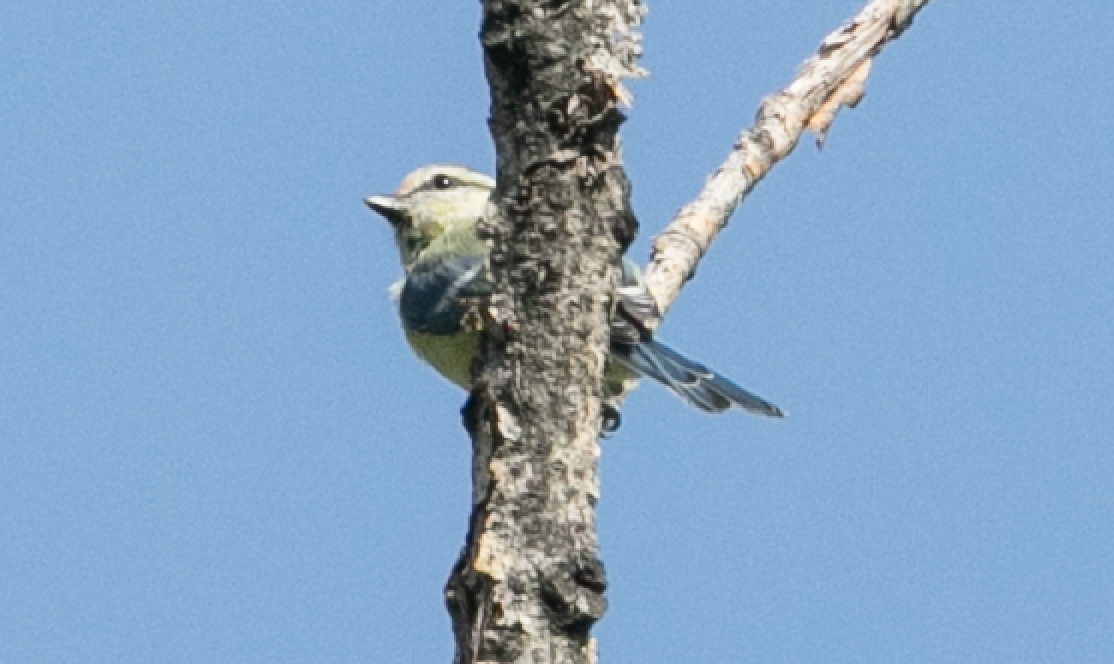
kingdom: Animalia
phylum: Chordata
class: Aves
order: Passeriformes
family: Paridae
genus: Cyanistes
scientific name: Cyanistes caeruleus
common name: Eurasian blue tit
